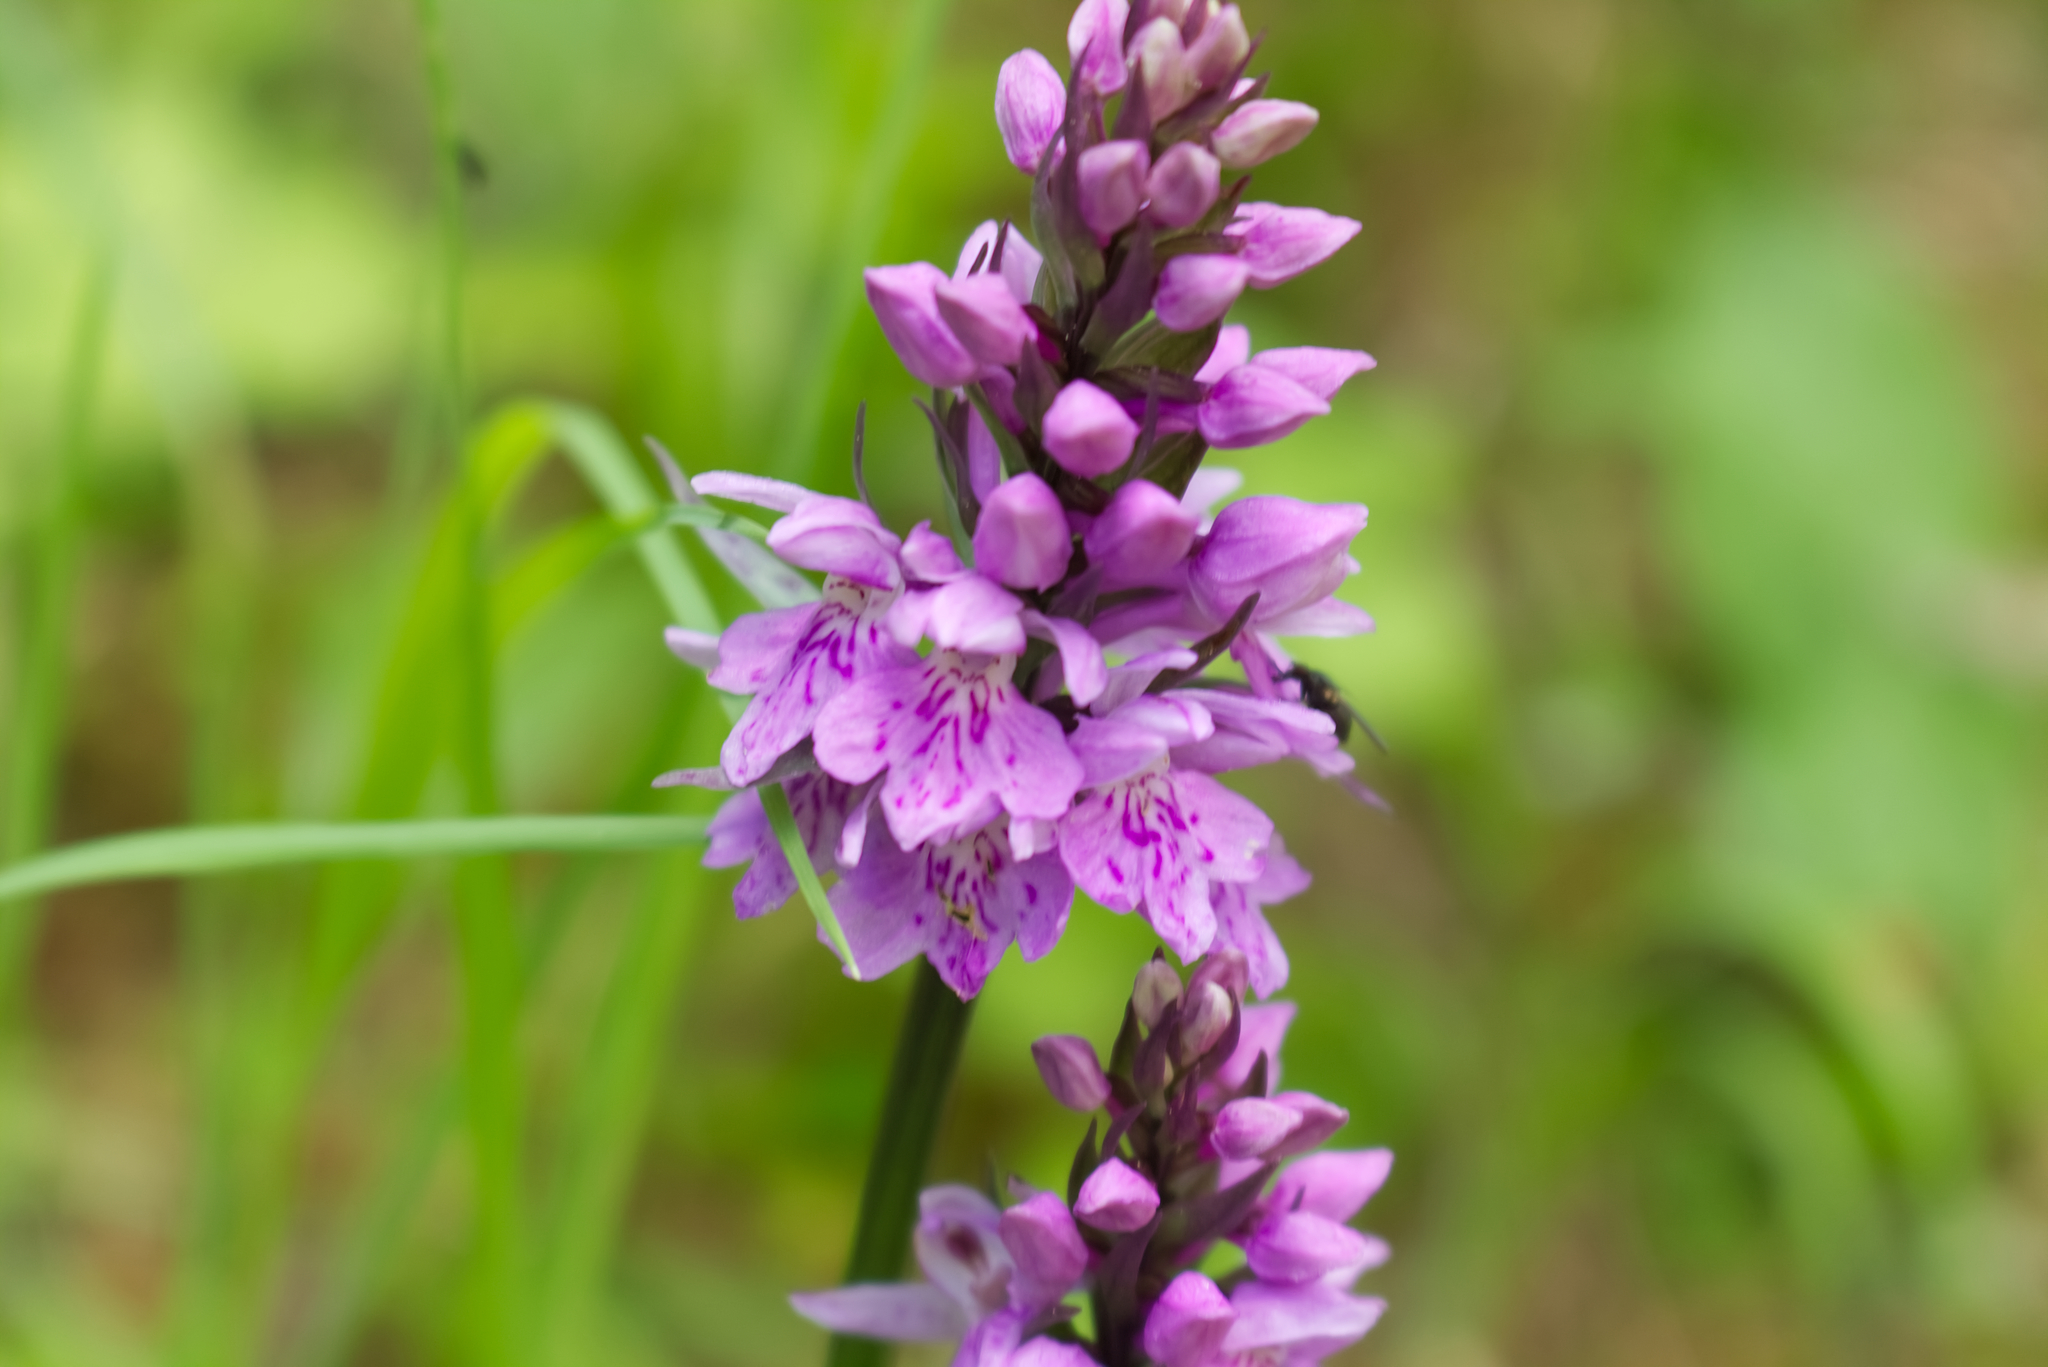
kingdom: Plantae
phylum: Tracheophyta
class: Liliopsida
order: Asparagales
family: Orchidaceae
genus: Dactylorhiza
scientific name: Dactylorhiza maculata
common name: Heath spotted-orchid
